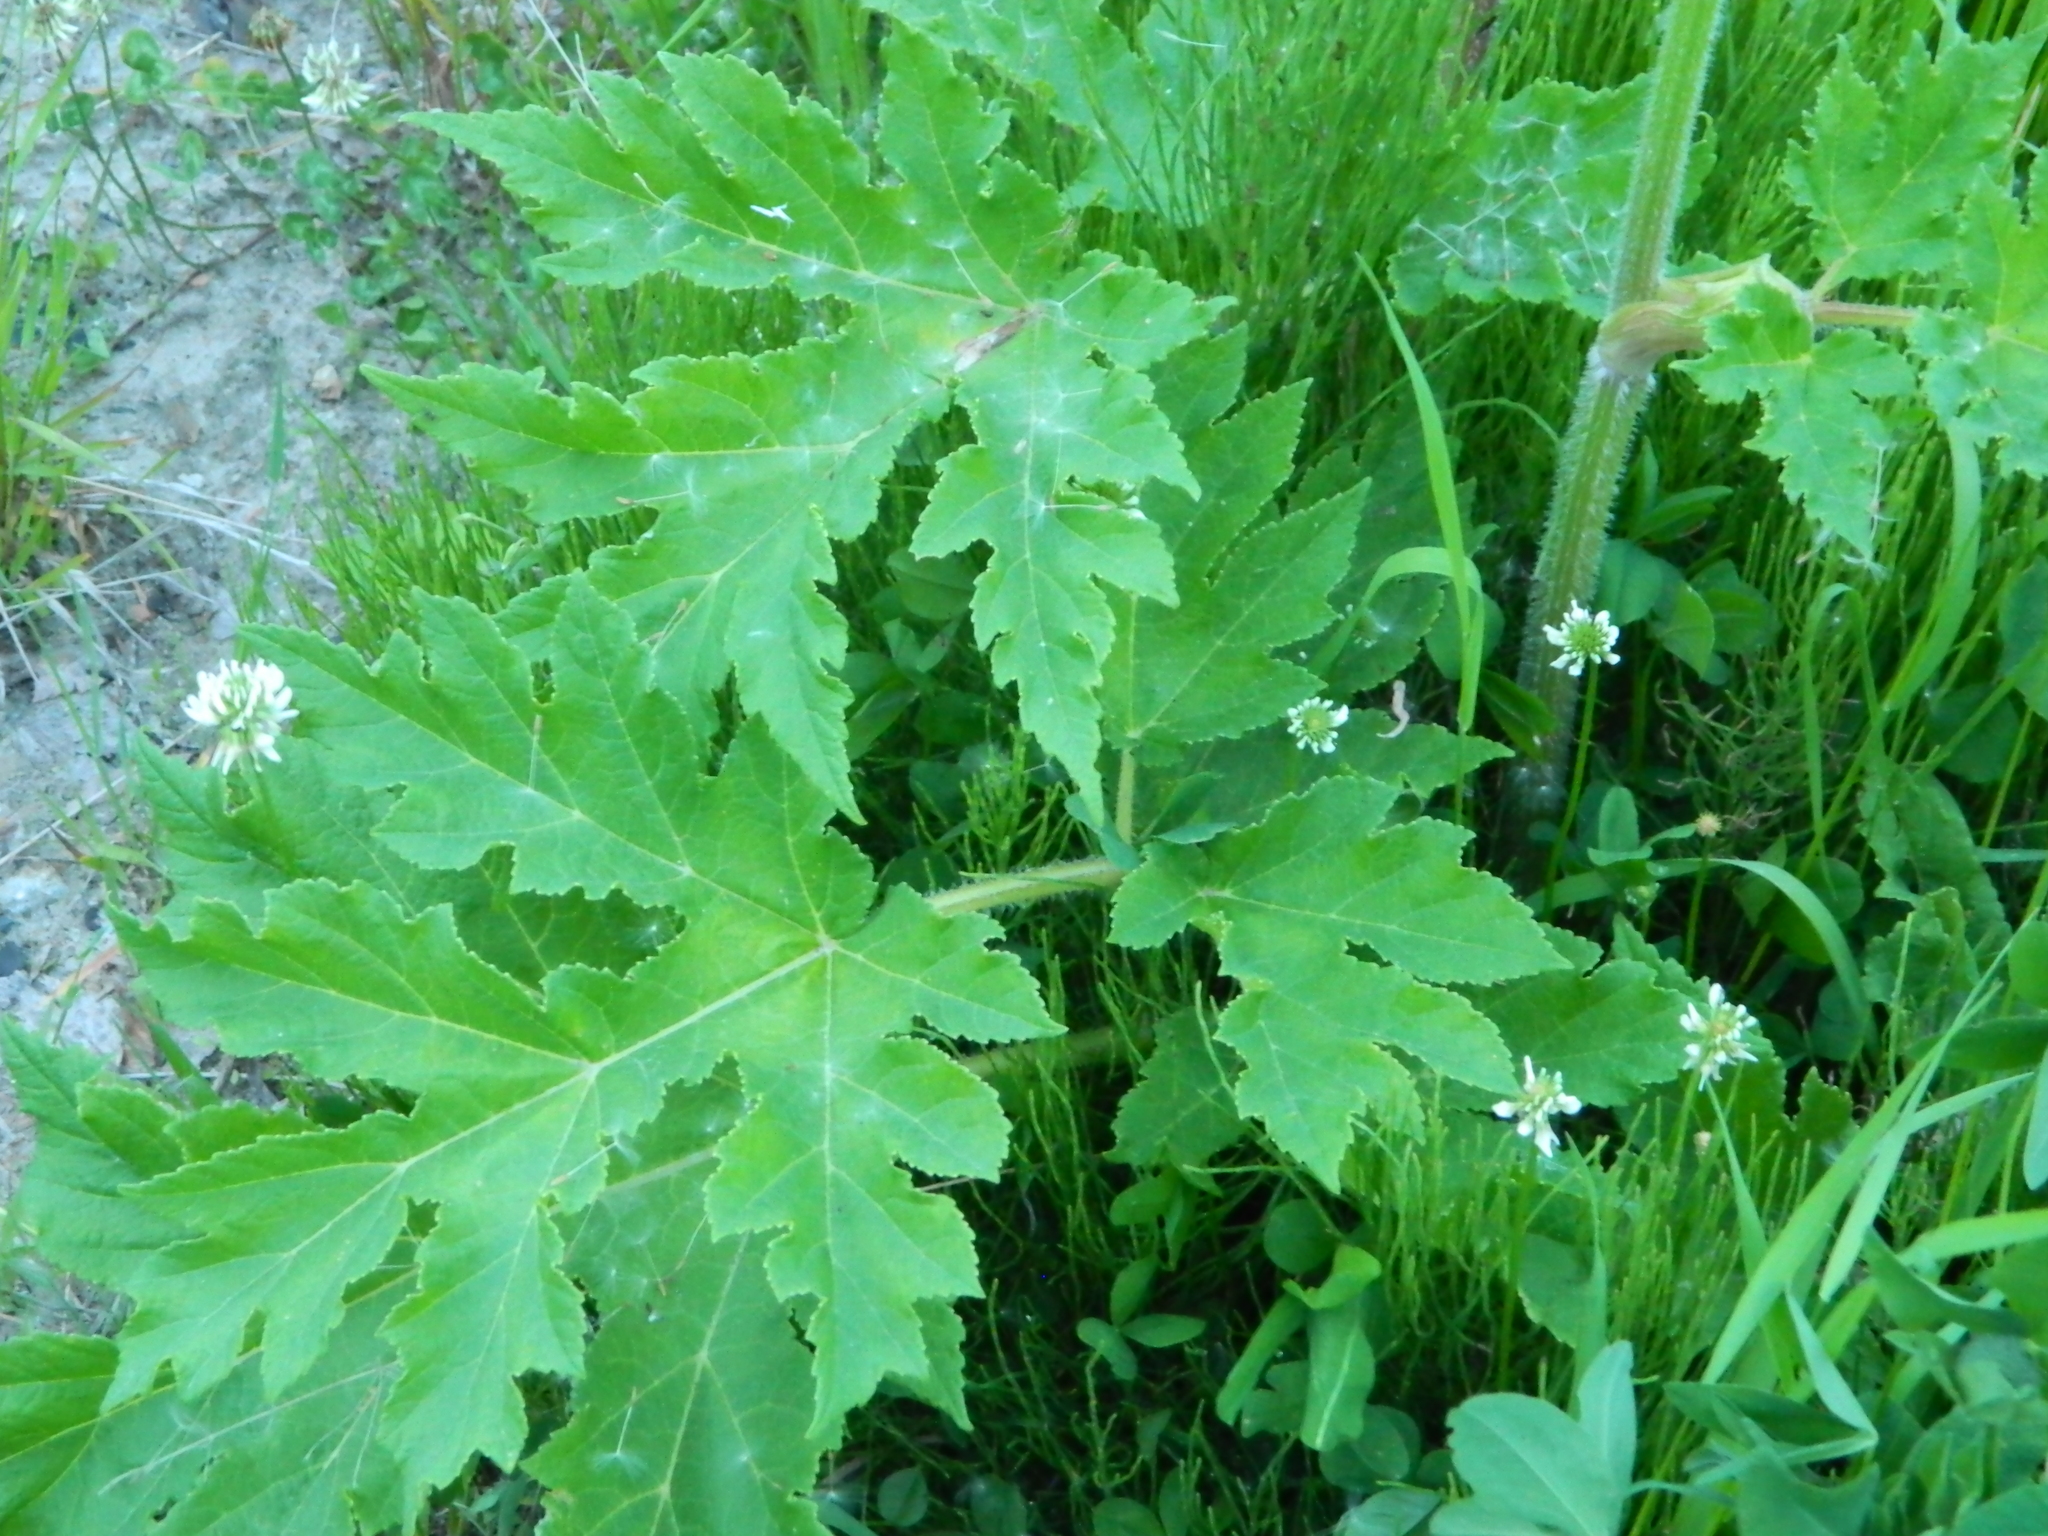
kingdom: Plantae
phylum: Tracheophyta
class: Magnoliopsida
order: Apiales
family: Apiaceae
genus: Heracleum
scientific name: Heracleum dissectum
